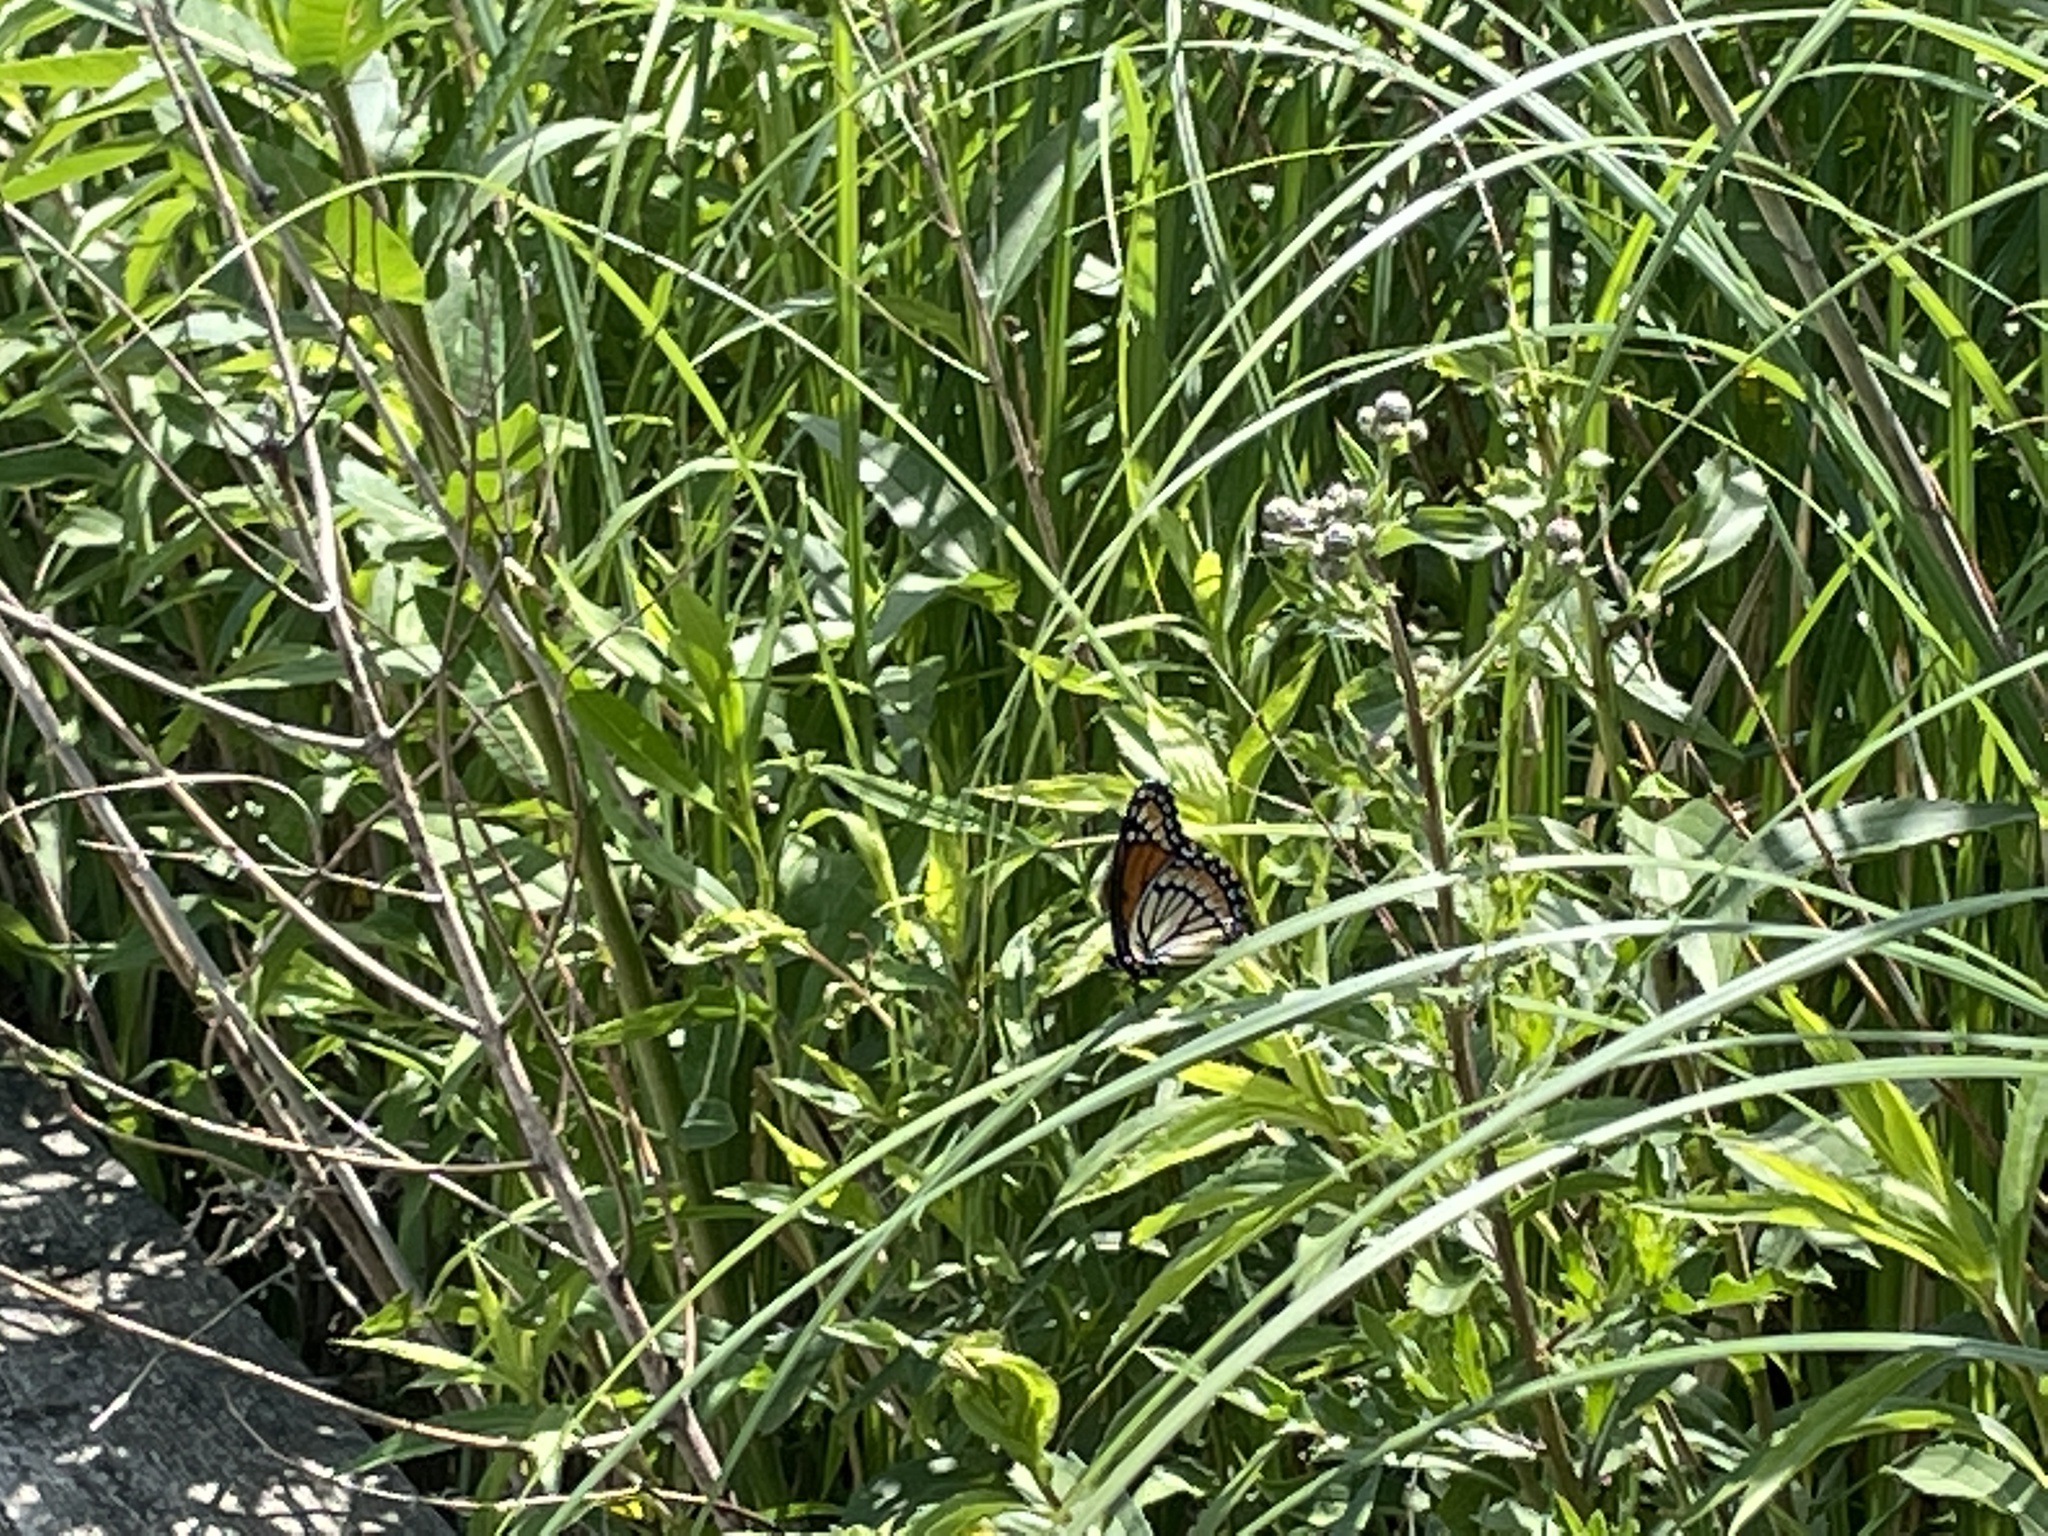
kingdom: Animalia
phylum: Arthropoda
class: Insecta
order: Lepidoptera
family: Nymphalidae
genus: Limenitis
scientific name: Limenitis archippus
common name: Viceroy
